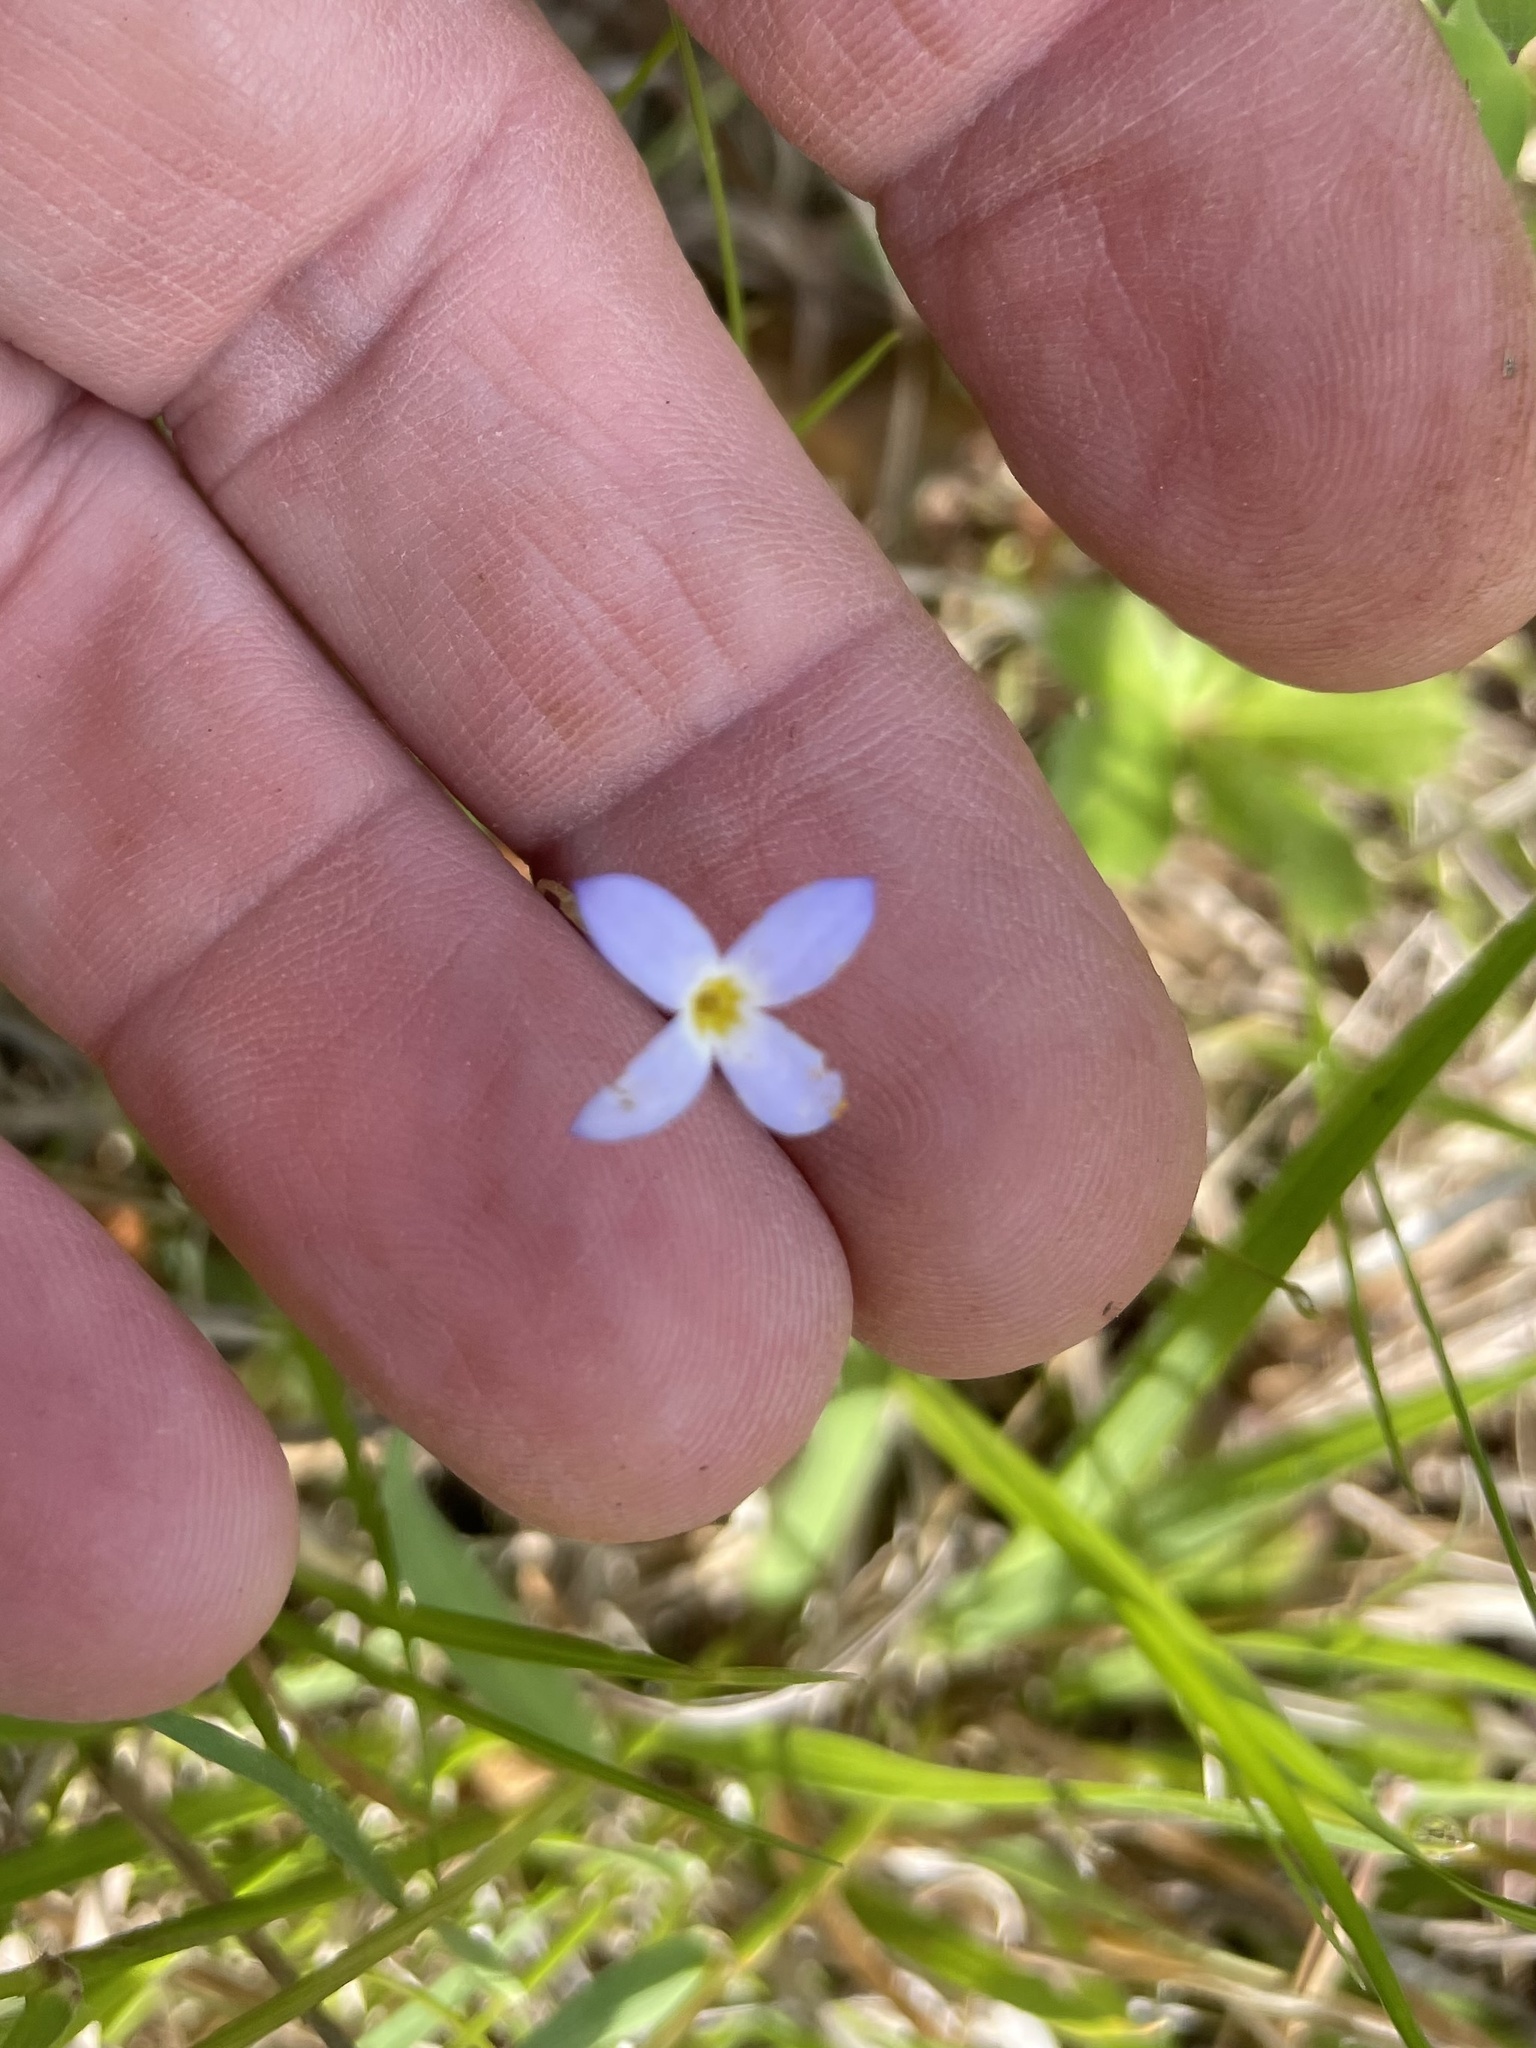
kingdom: Plantae
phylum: Tracheophyta
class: Magnoliopsida
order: Gentianales
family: Rubiaceae
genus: Houstonia
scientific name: Houstonia caerulea
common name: Bluets
